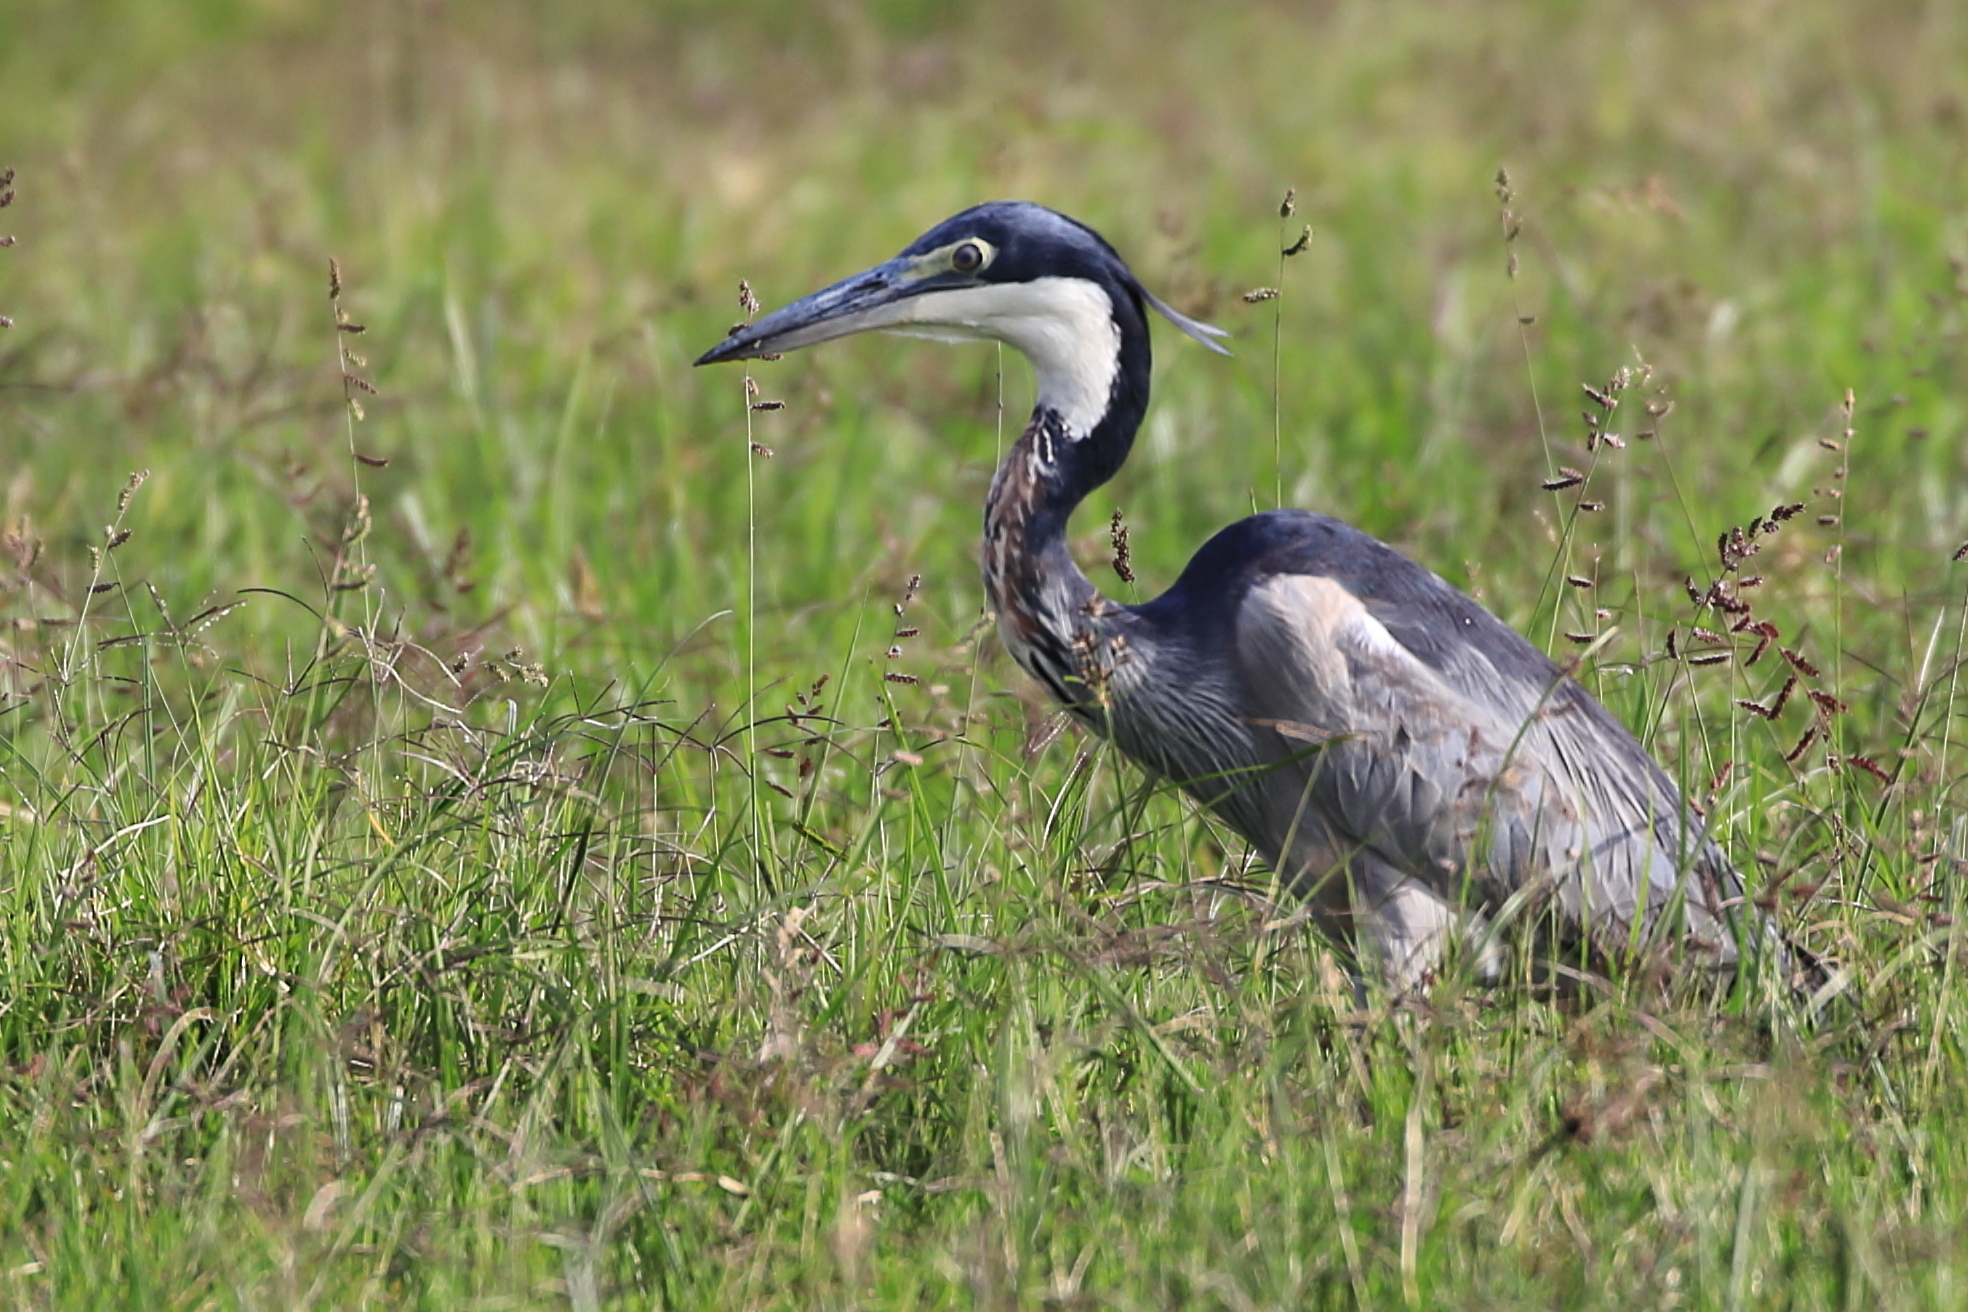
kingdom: Animalia
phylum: Chordata
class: Aves
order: Pelecaniformes
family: Ardeidae
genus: Ardea
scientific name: Ardea melanocephala
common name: Black-headed heron
